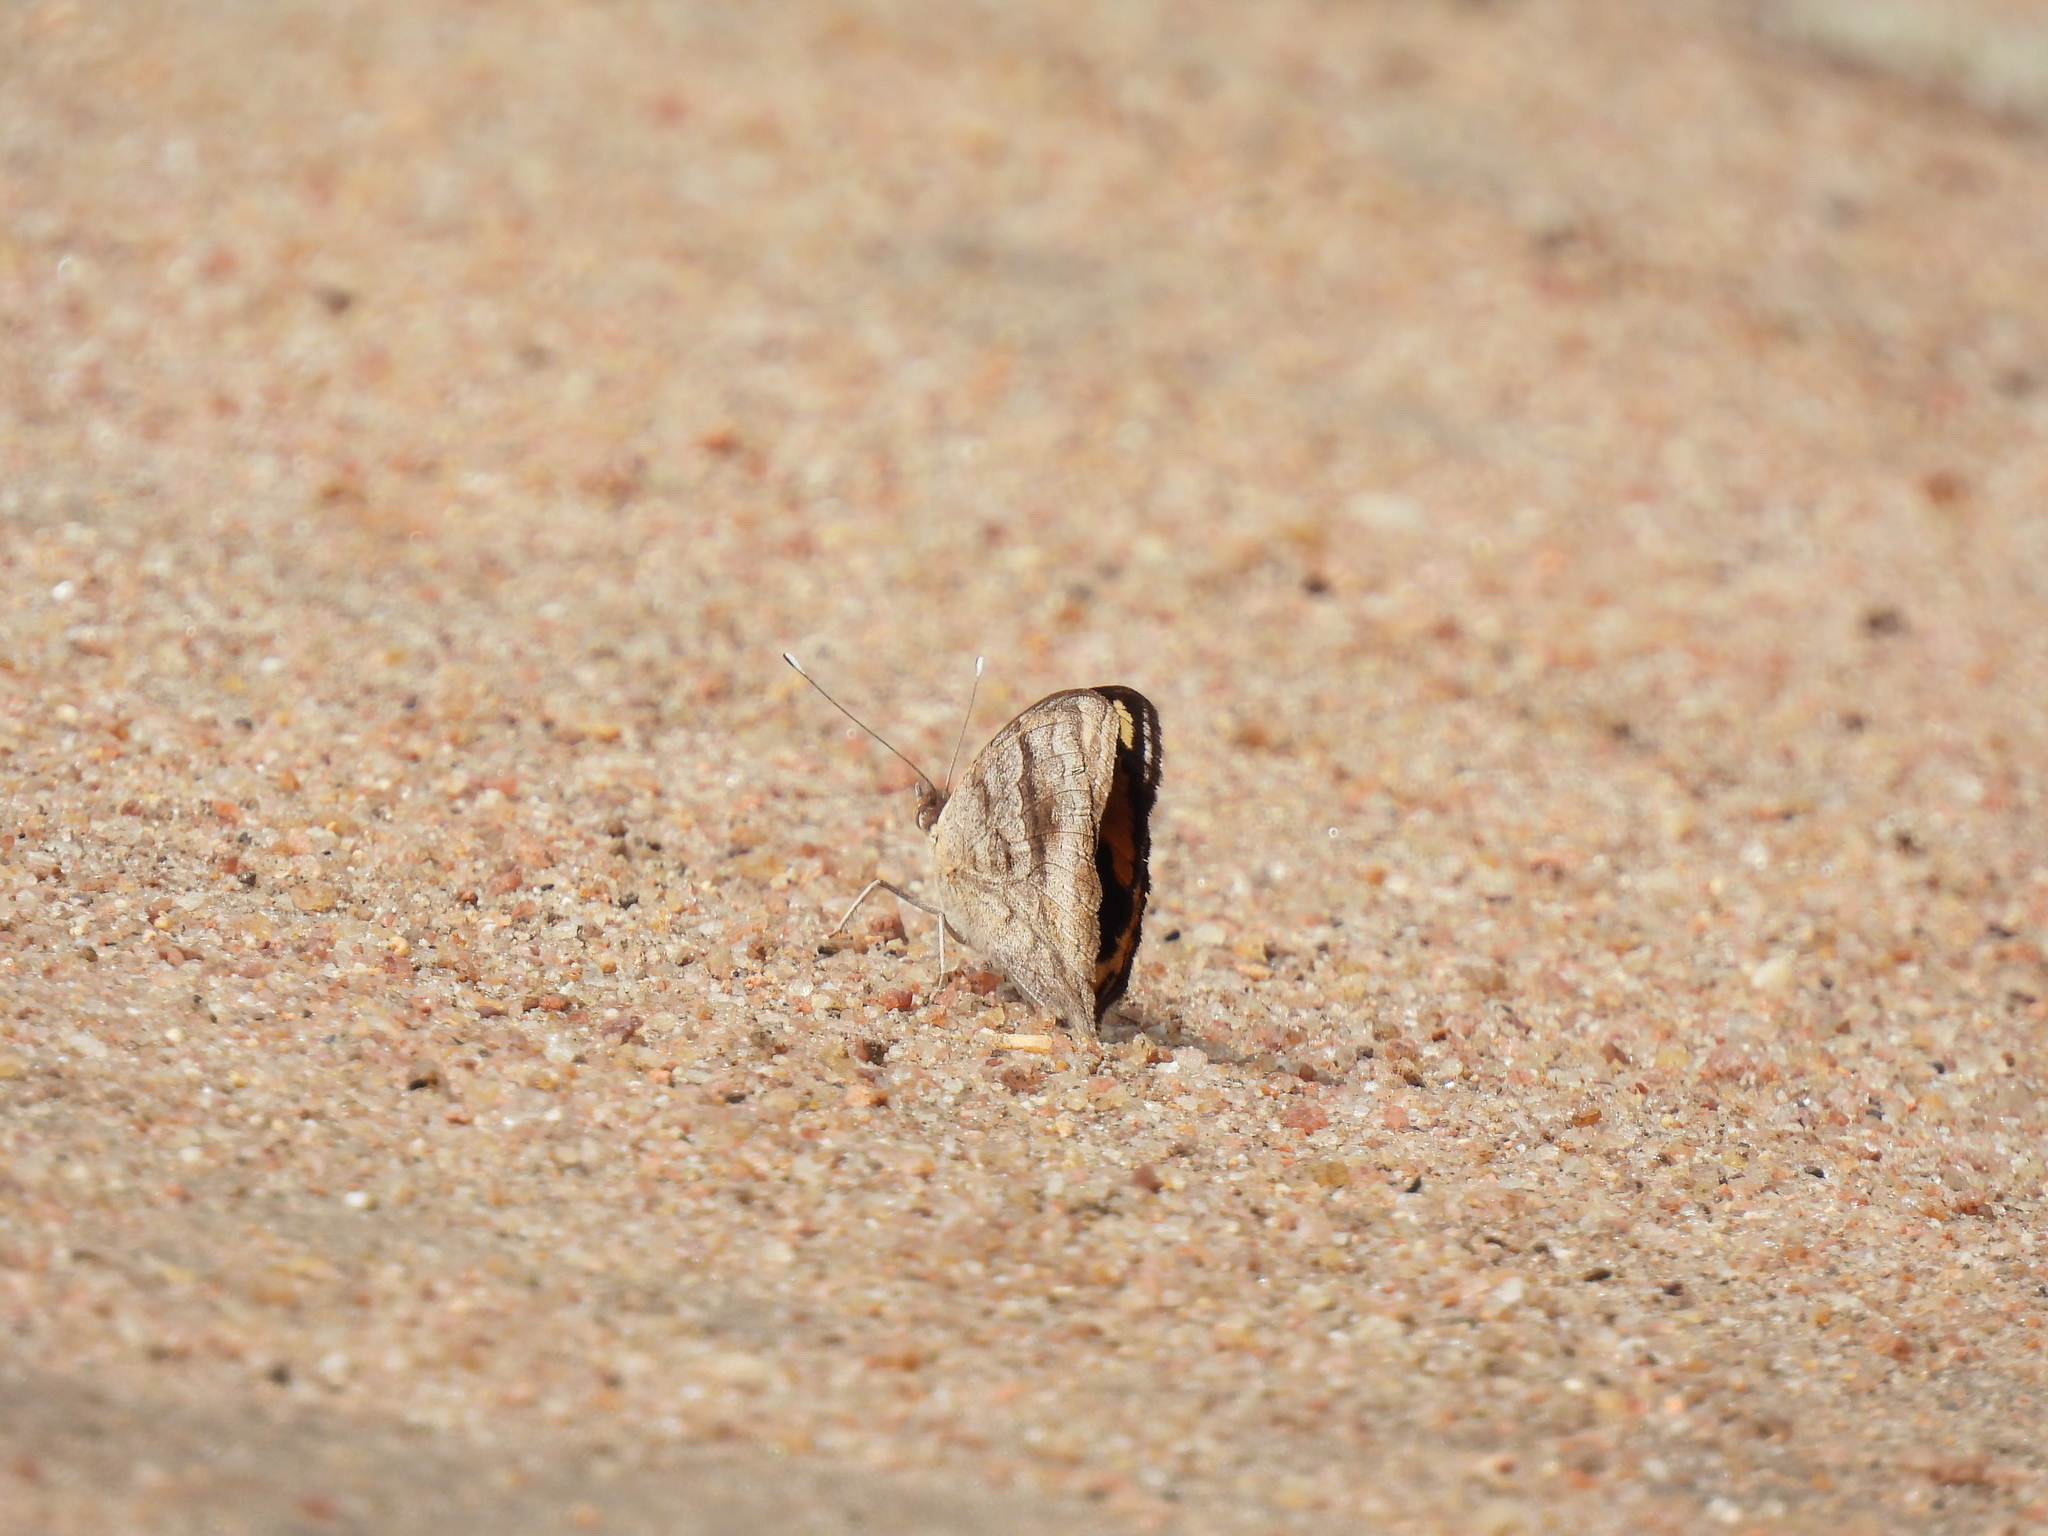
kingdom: Animalia
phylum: Arthropoda
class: Insecta
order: Lepidoptera
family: Nymphalidae
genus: Junonia
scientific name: Junonia hierta
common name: Yellow pansy
